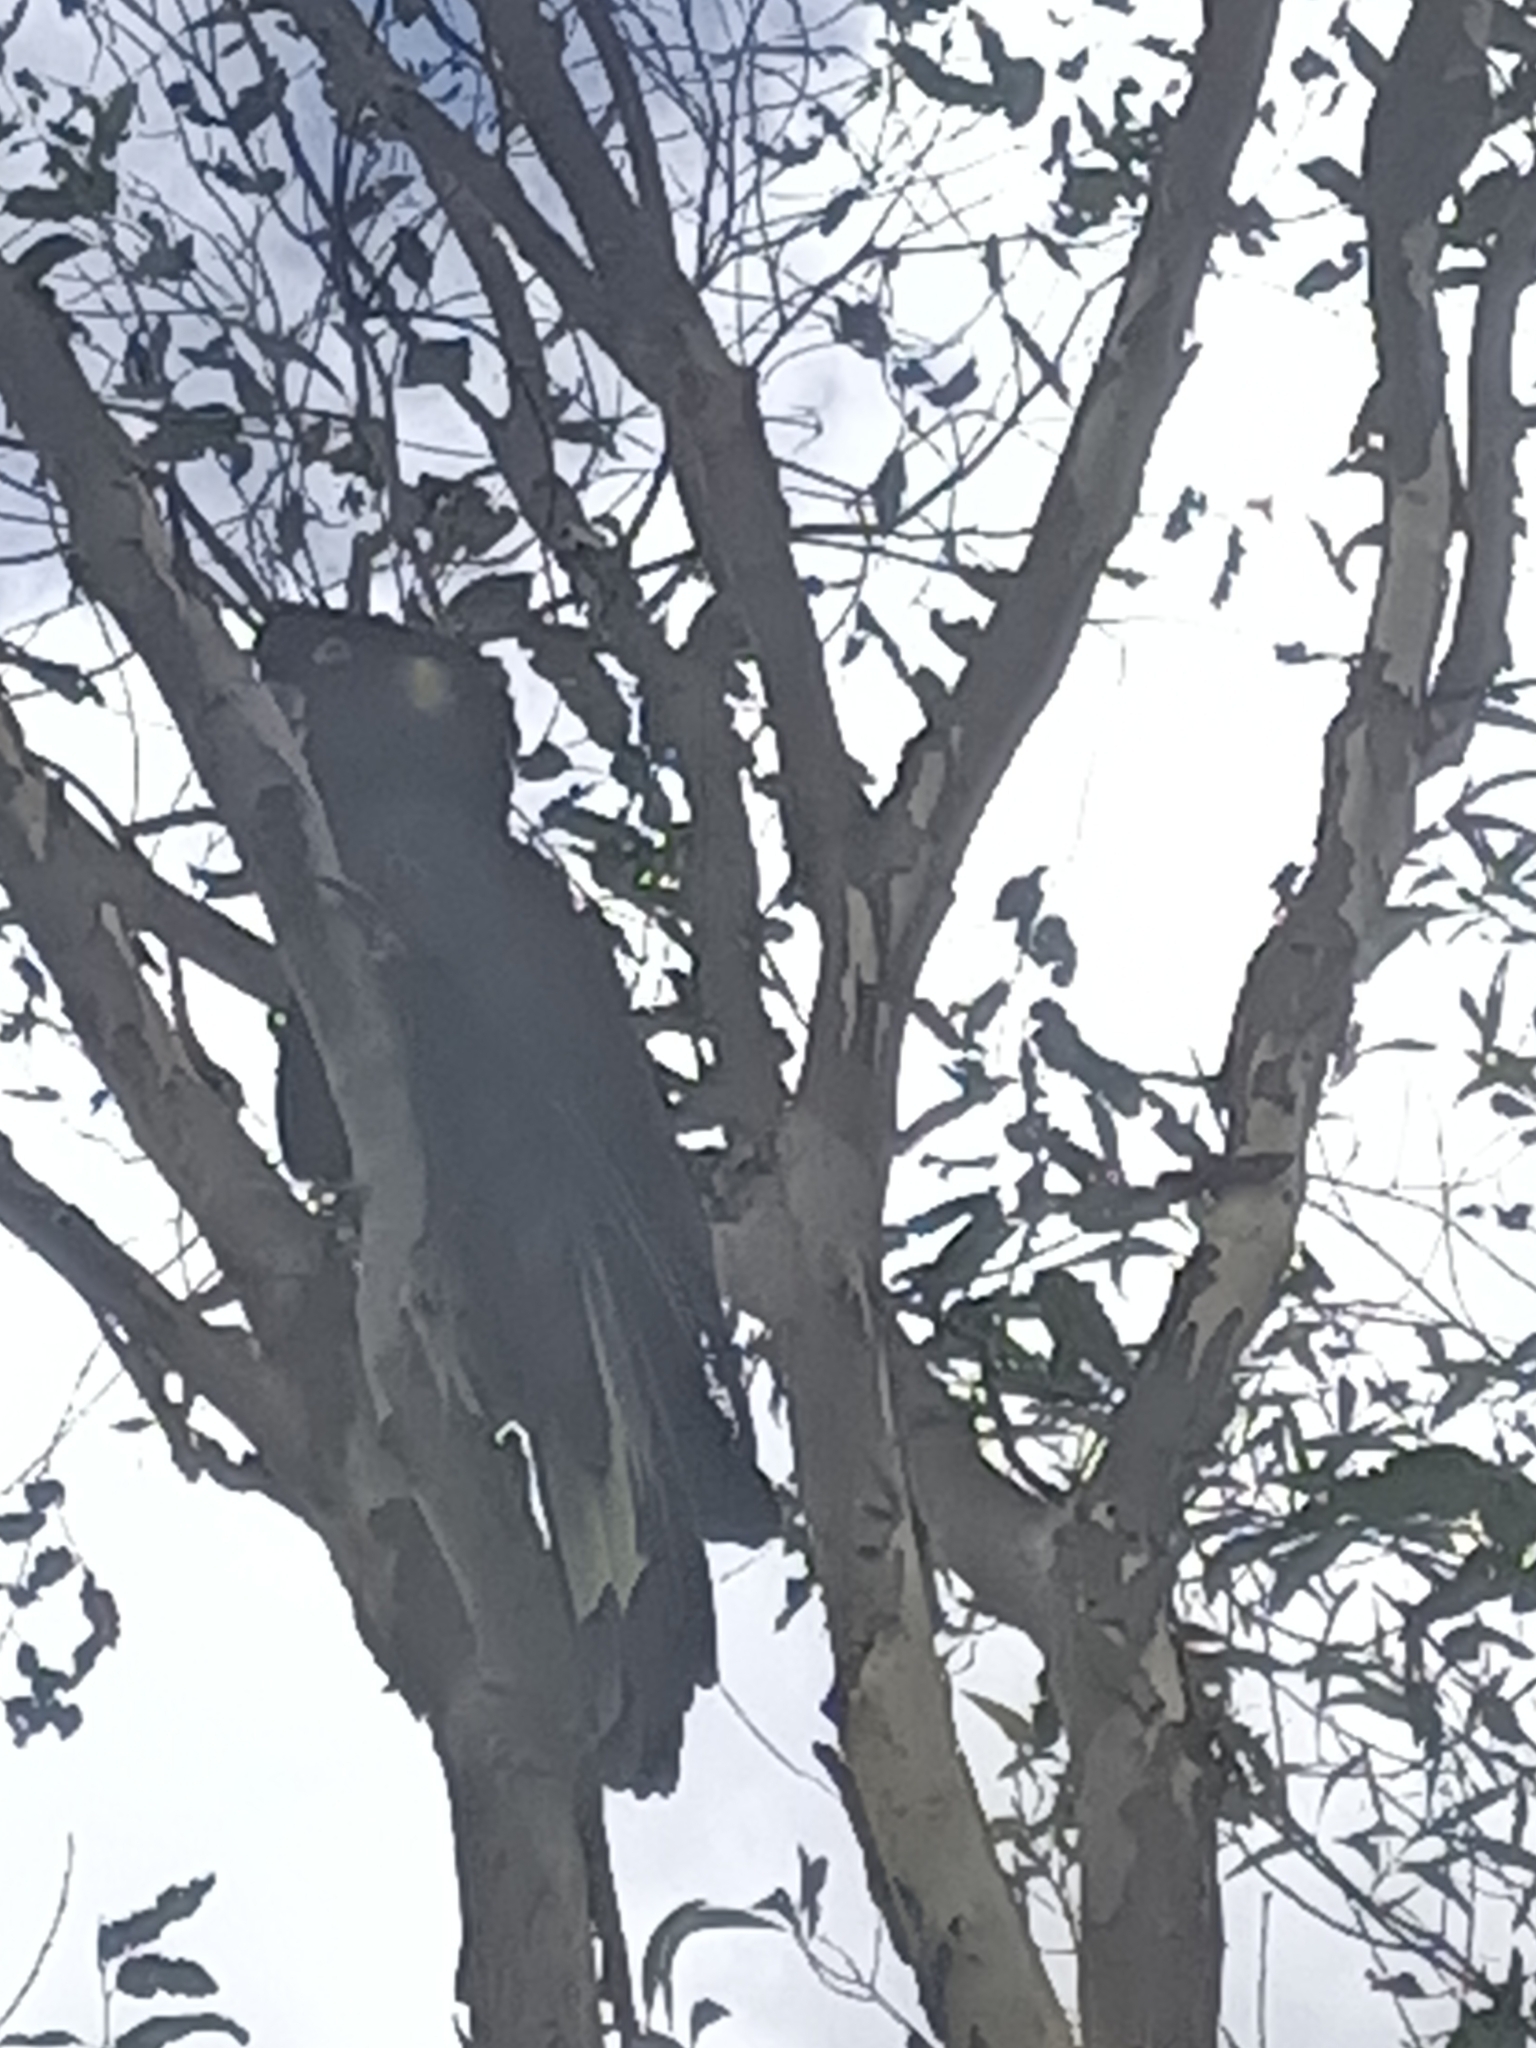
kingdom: Animalia
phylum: Chordata
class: Aves
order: Psittaciformes
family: Cacatuidae
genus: Zanda
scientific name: Zanda funerea
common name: Yellow-tailed black-cockatoo
